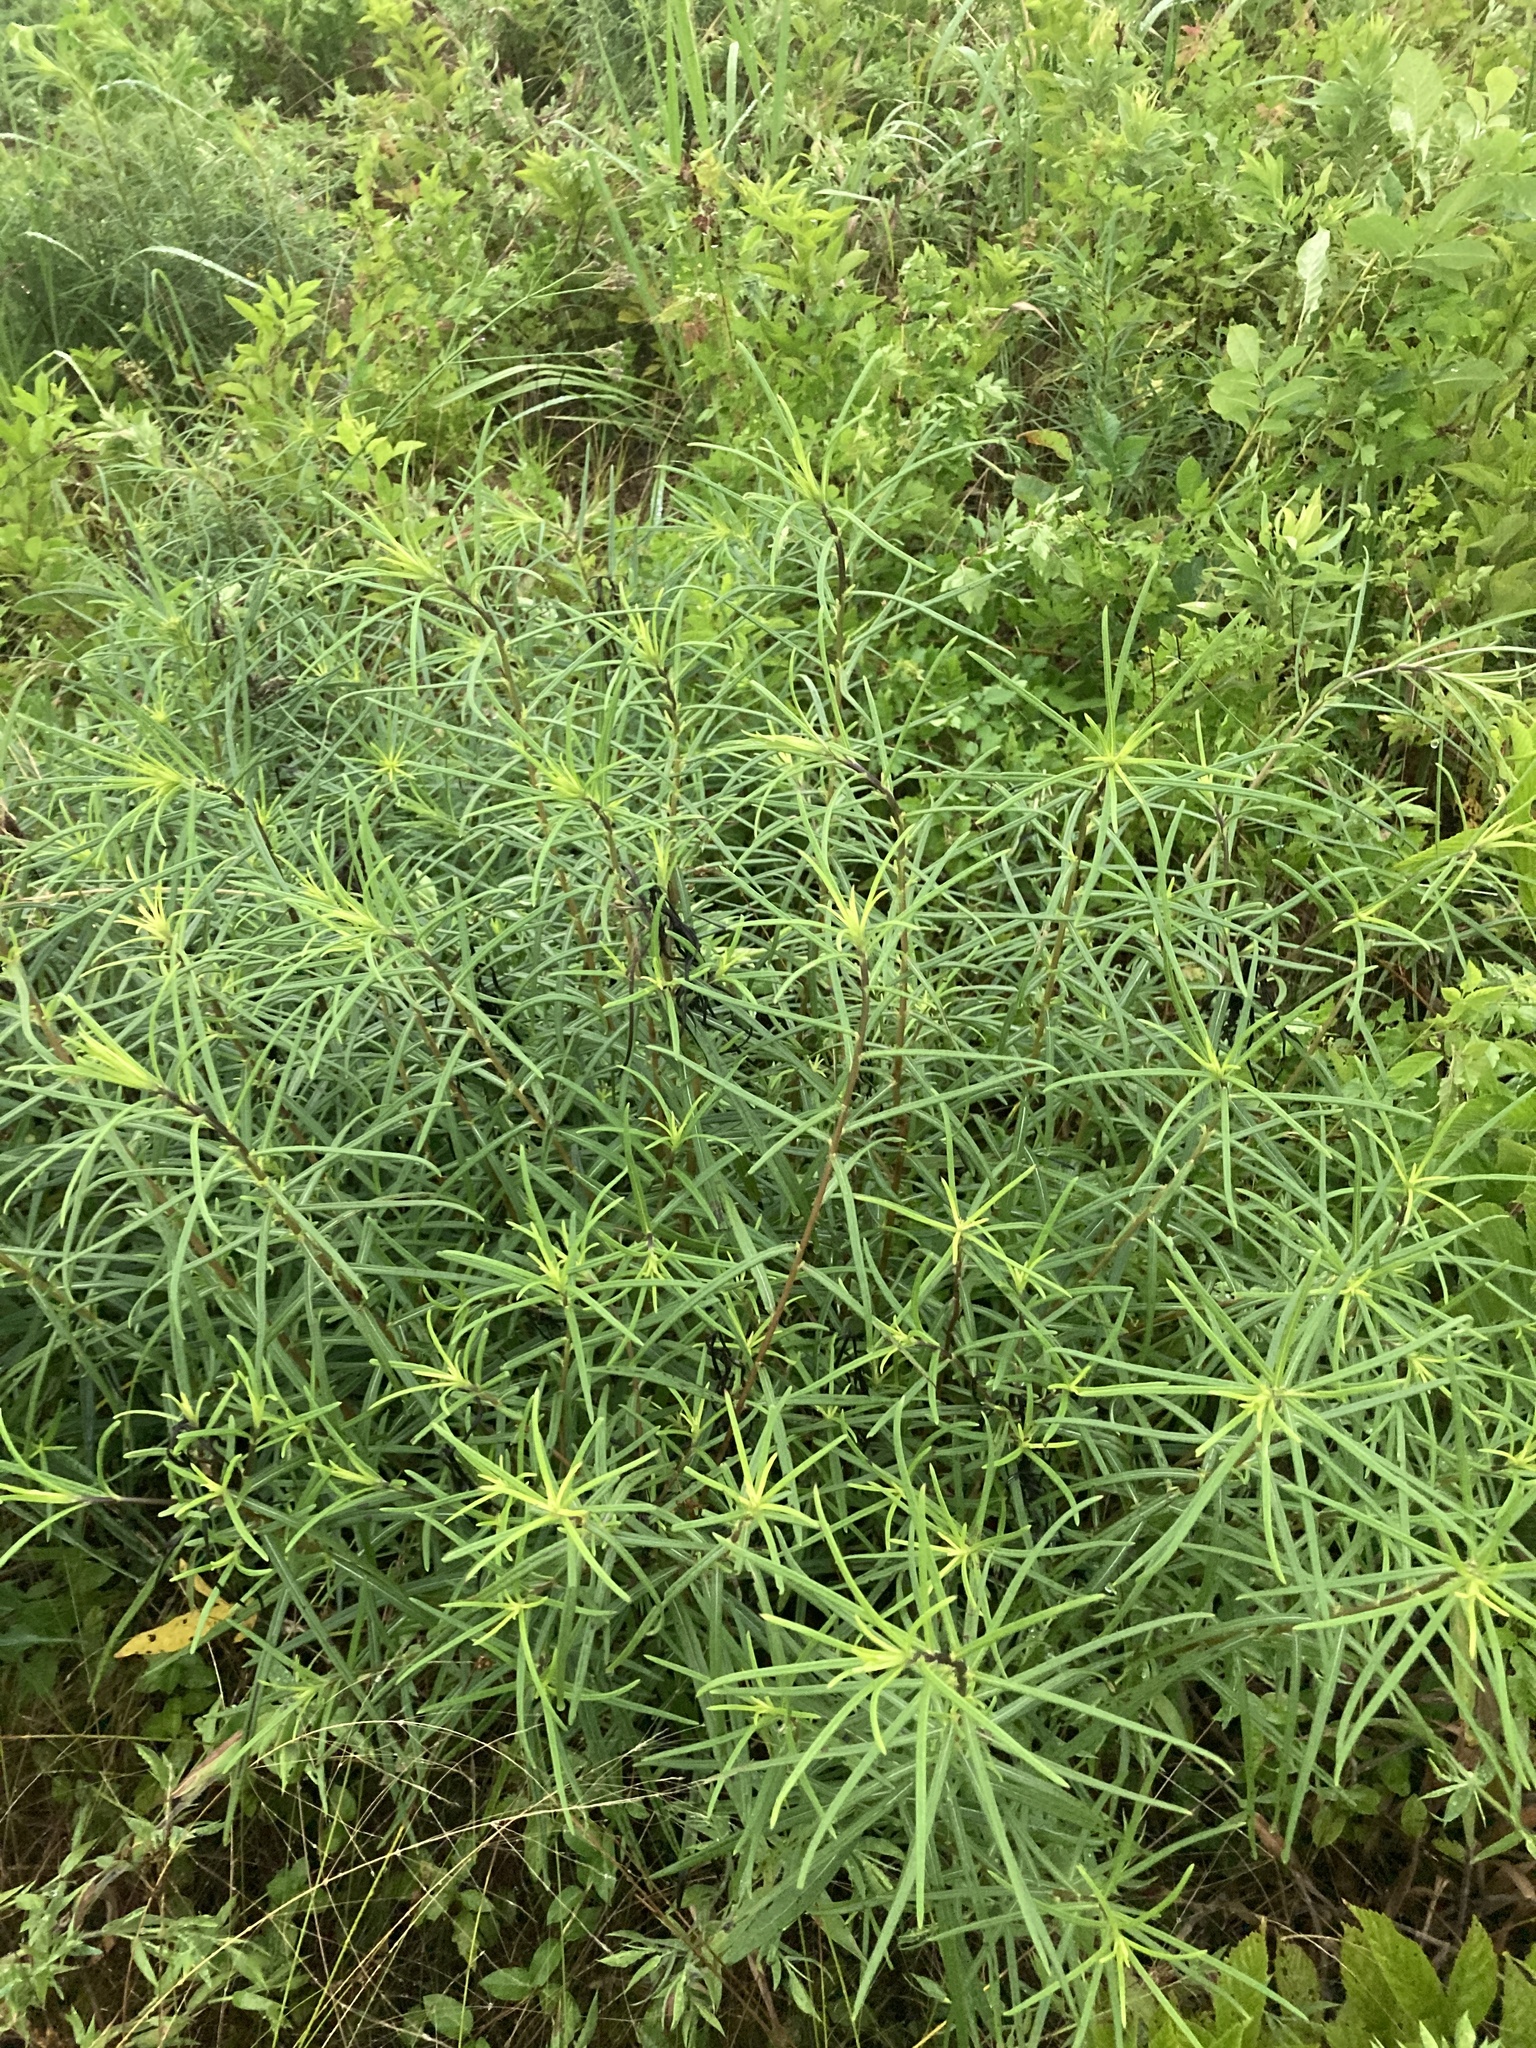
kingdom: Plantae
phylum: Tracheophyta
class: Magnoliopsida
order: Asterales
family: Asteraceae
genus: Helianthus
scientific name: Helianthus angustifolius
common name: Swamp sunflower
